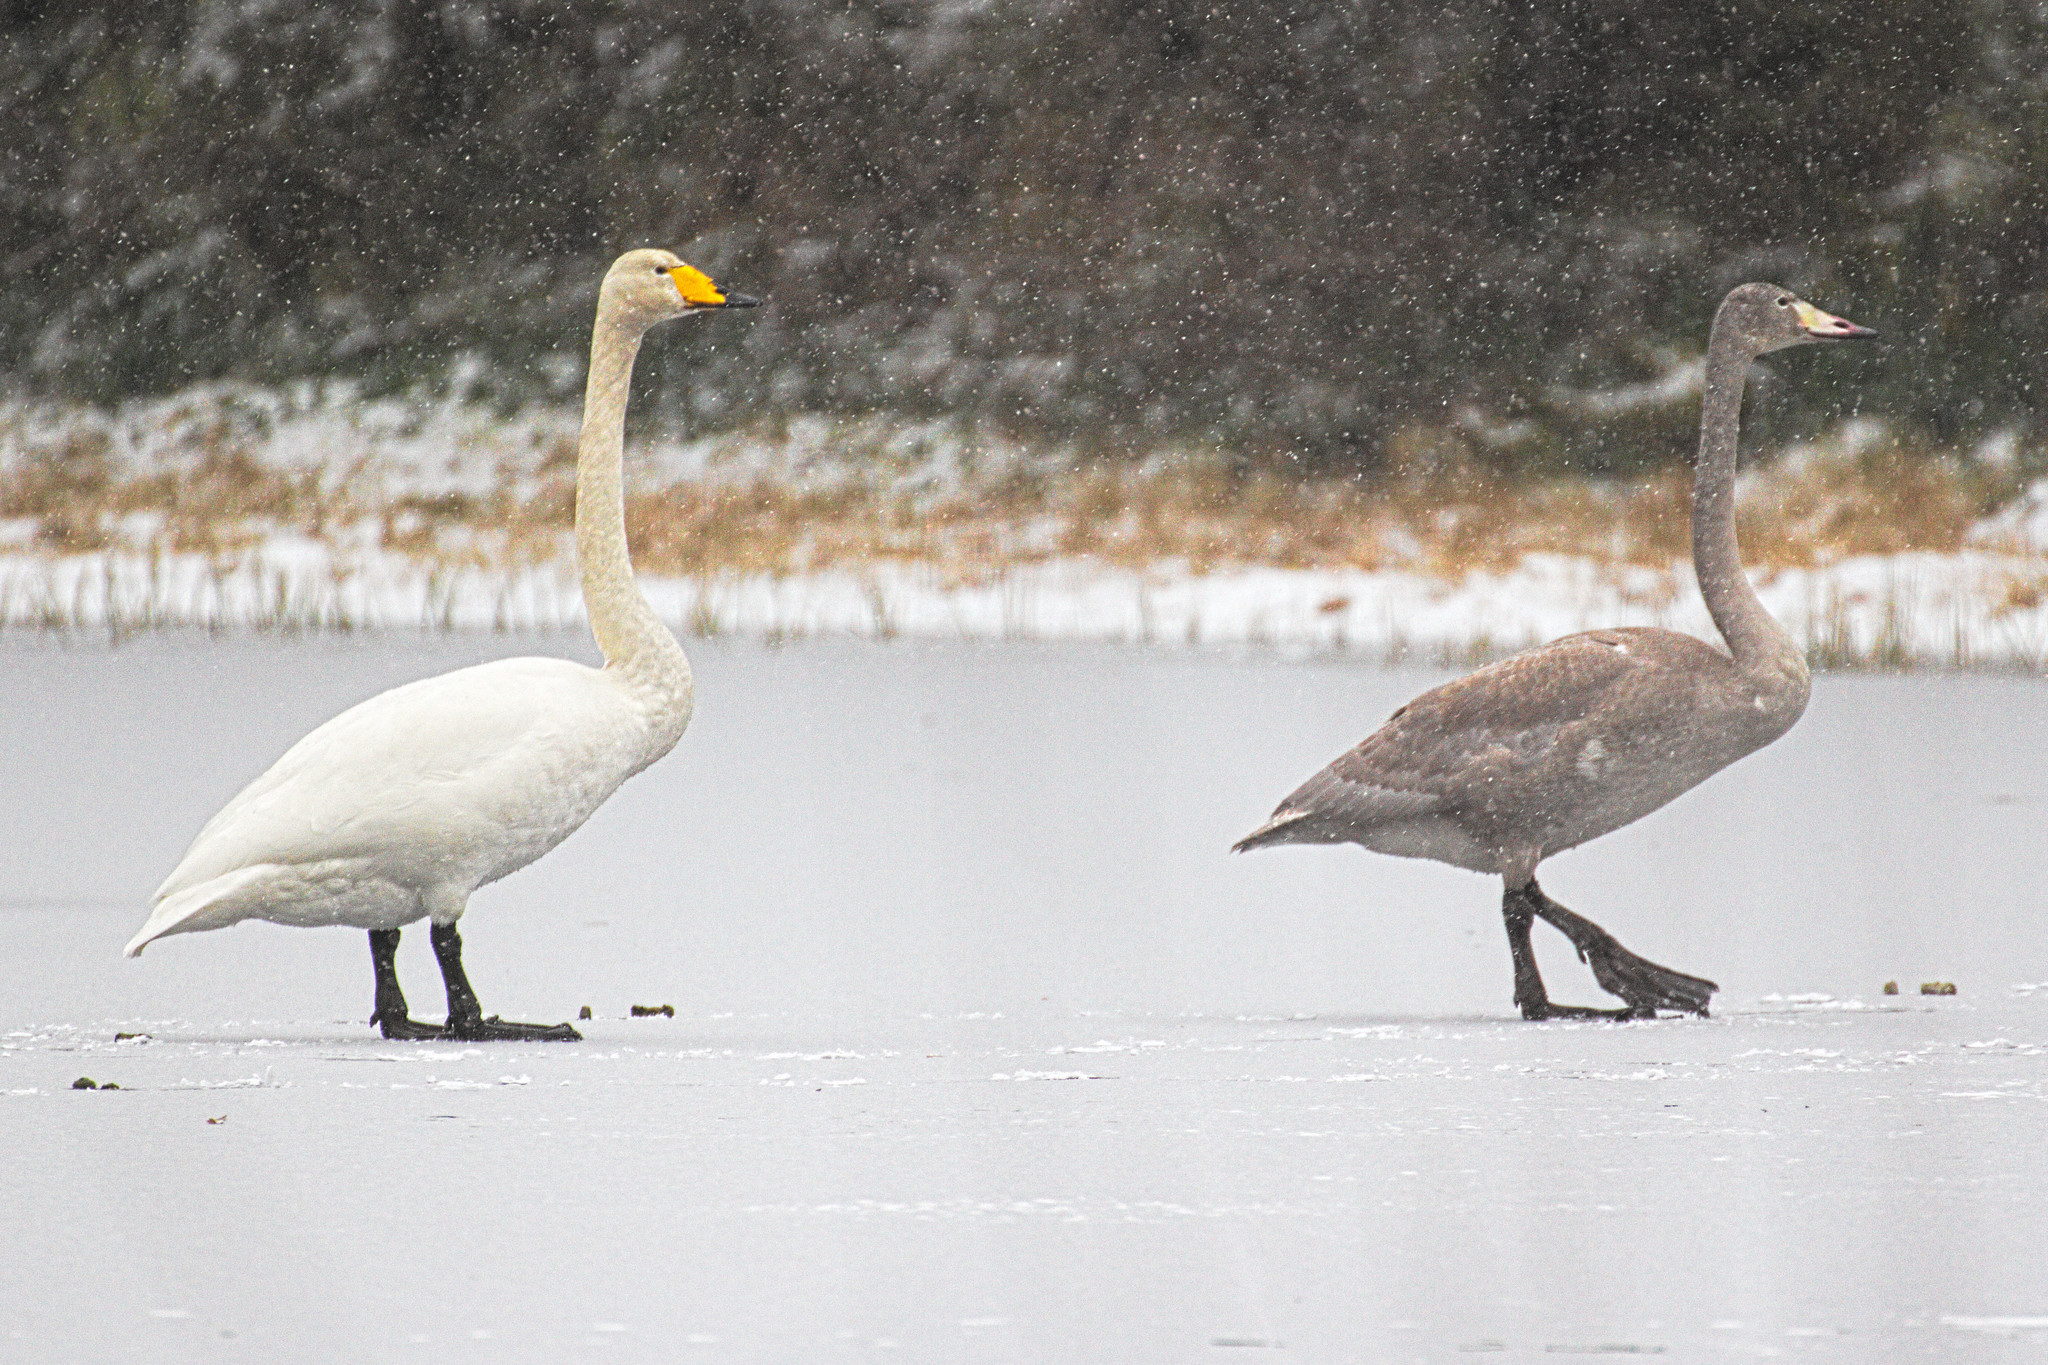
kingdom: Animalia
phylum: Chordata
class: Aves
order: Anseriformes
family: Anatidae
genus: Cygnus
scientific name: Cygnus cygnus
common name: Whooper swan
